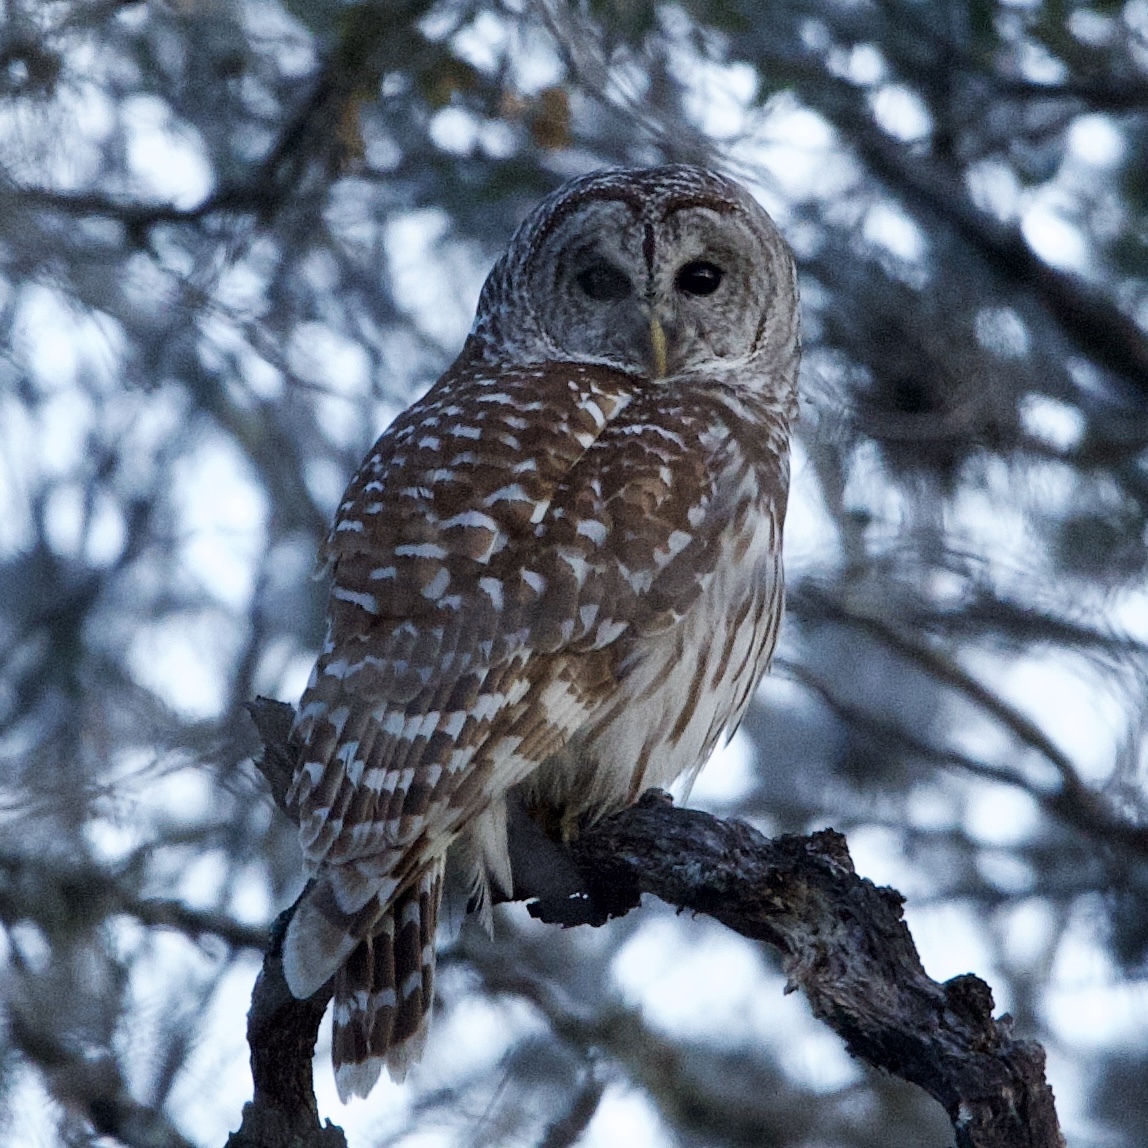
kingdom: Animalia
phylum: Chordata
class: Aves
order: Strigiformes
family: Strigidae
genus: Strix
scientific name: Strix varia
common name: Barred owl
